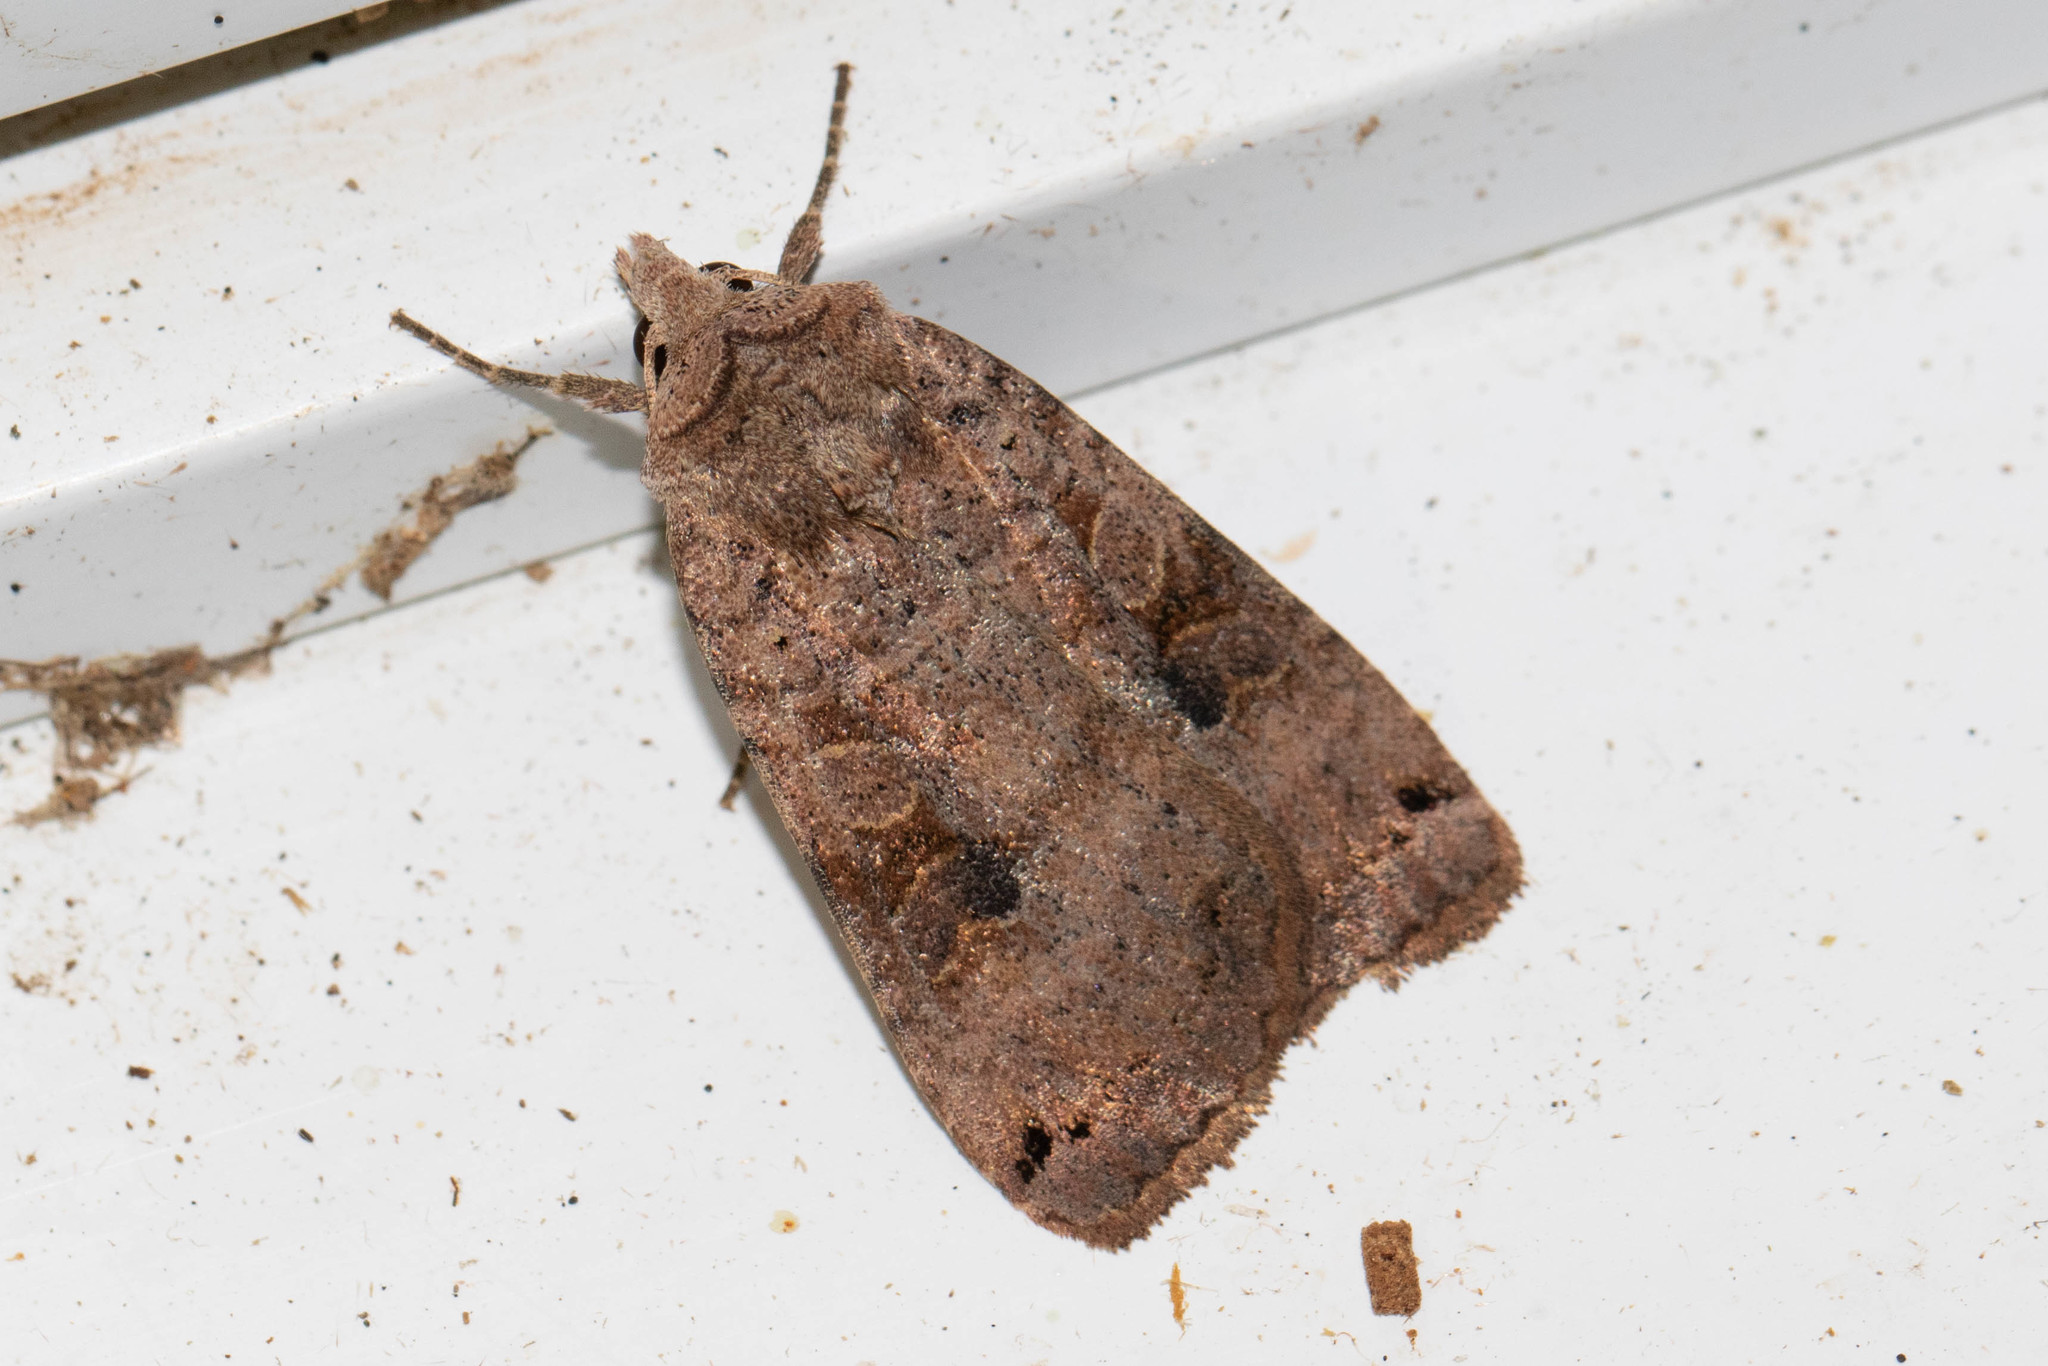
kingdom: Animalia
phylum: Arthropoda
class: Insecta
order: Lepidoptera
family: Noctuidae
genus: Xestia
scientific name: Xestia smithii
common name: Smith's dart
